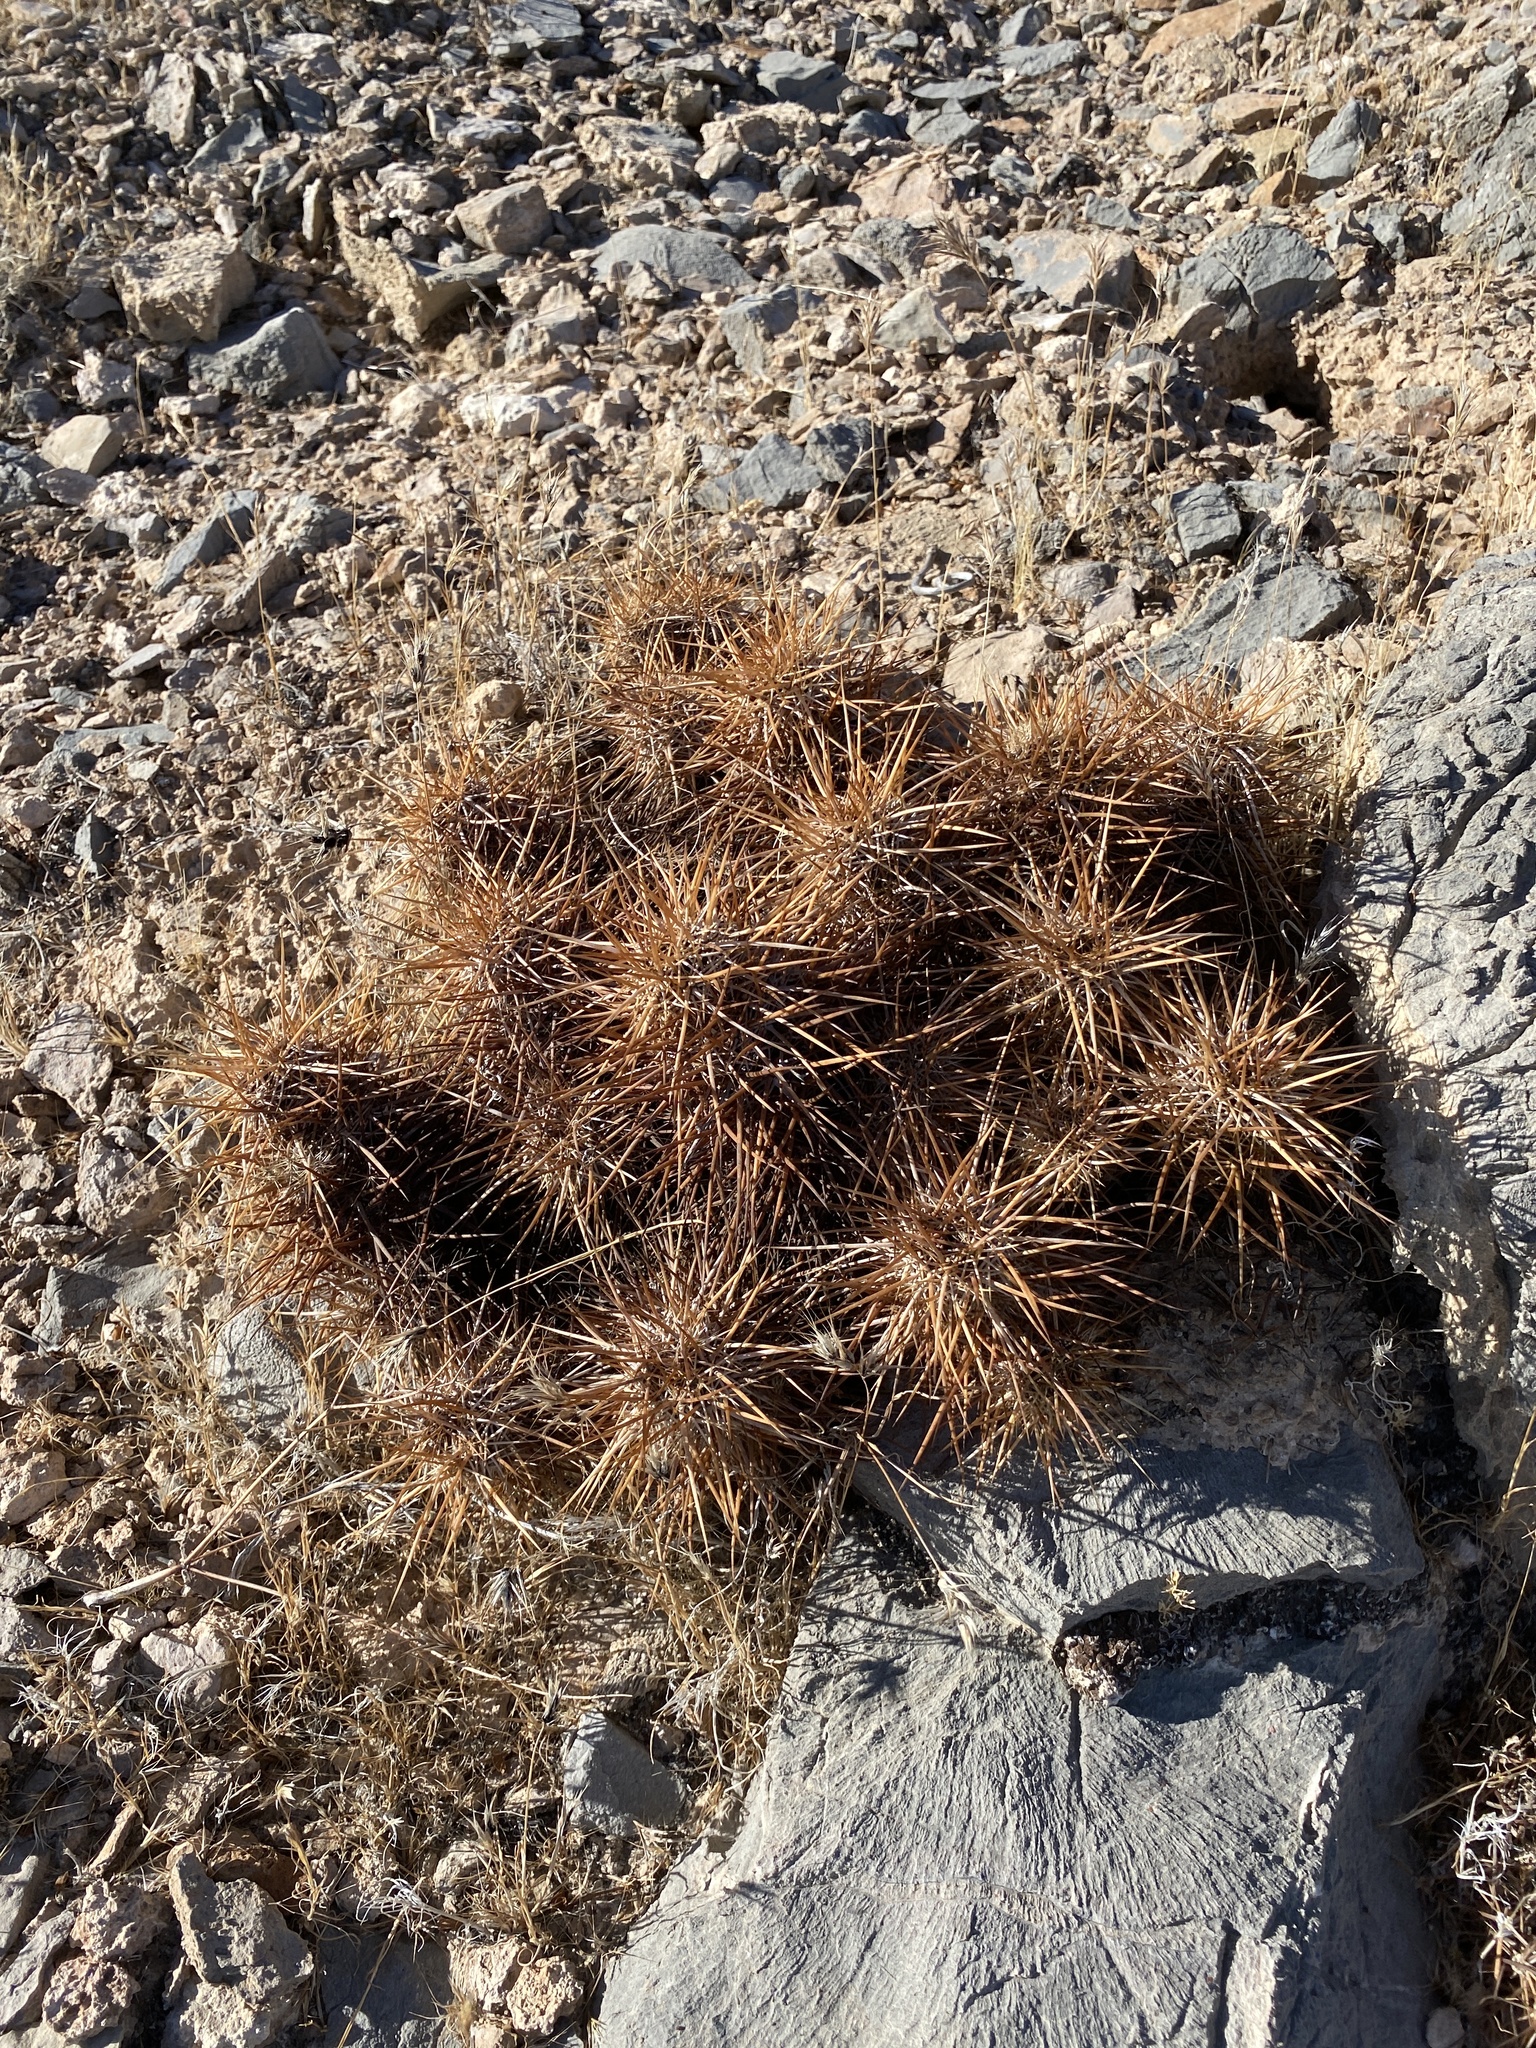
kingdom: Plantae
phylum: Tracheophyta
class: Magnoliopsida
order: Caryophyllales
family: Cactaceae
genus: Echinocereus
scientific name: Echinocereus engelmannii
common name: Engelmann's hedgehog cactus
